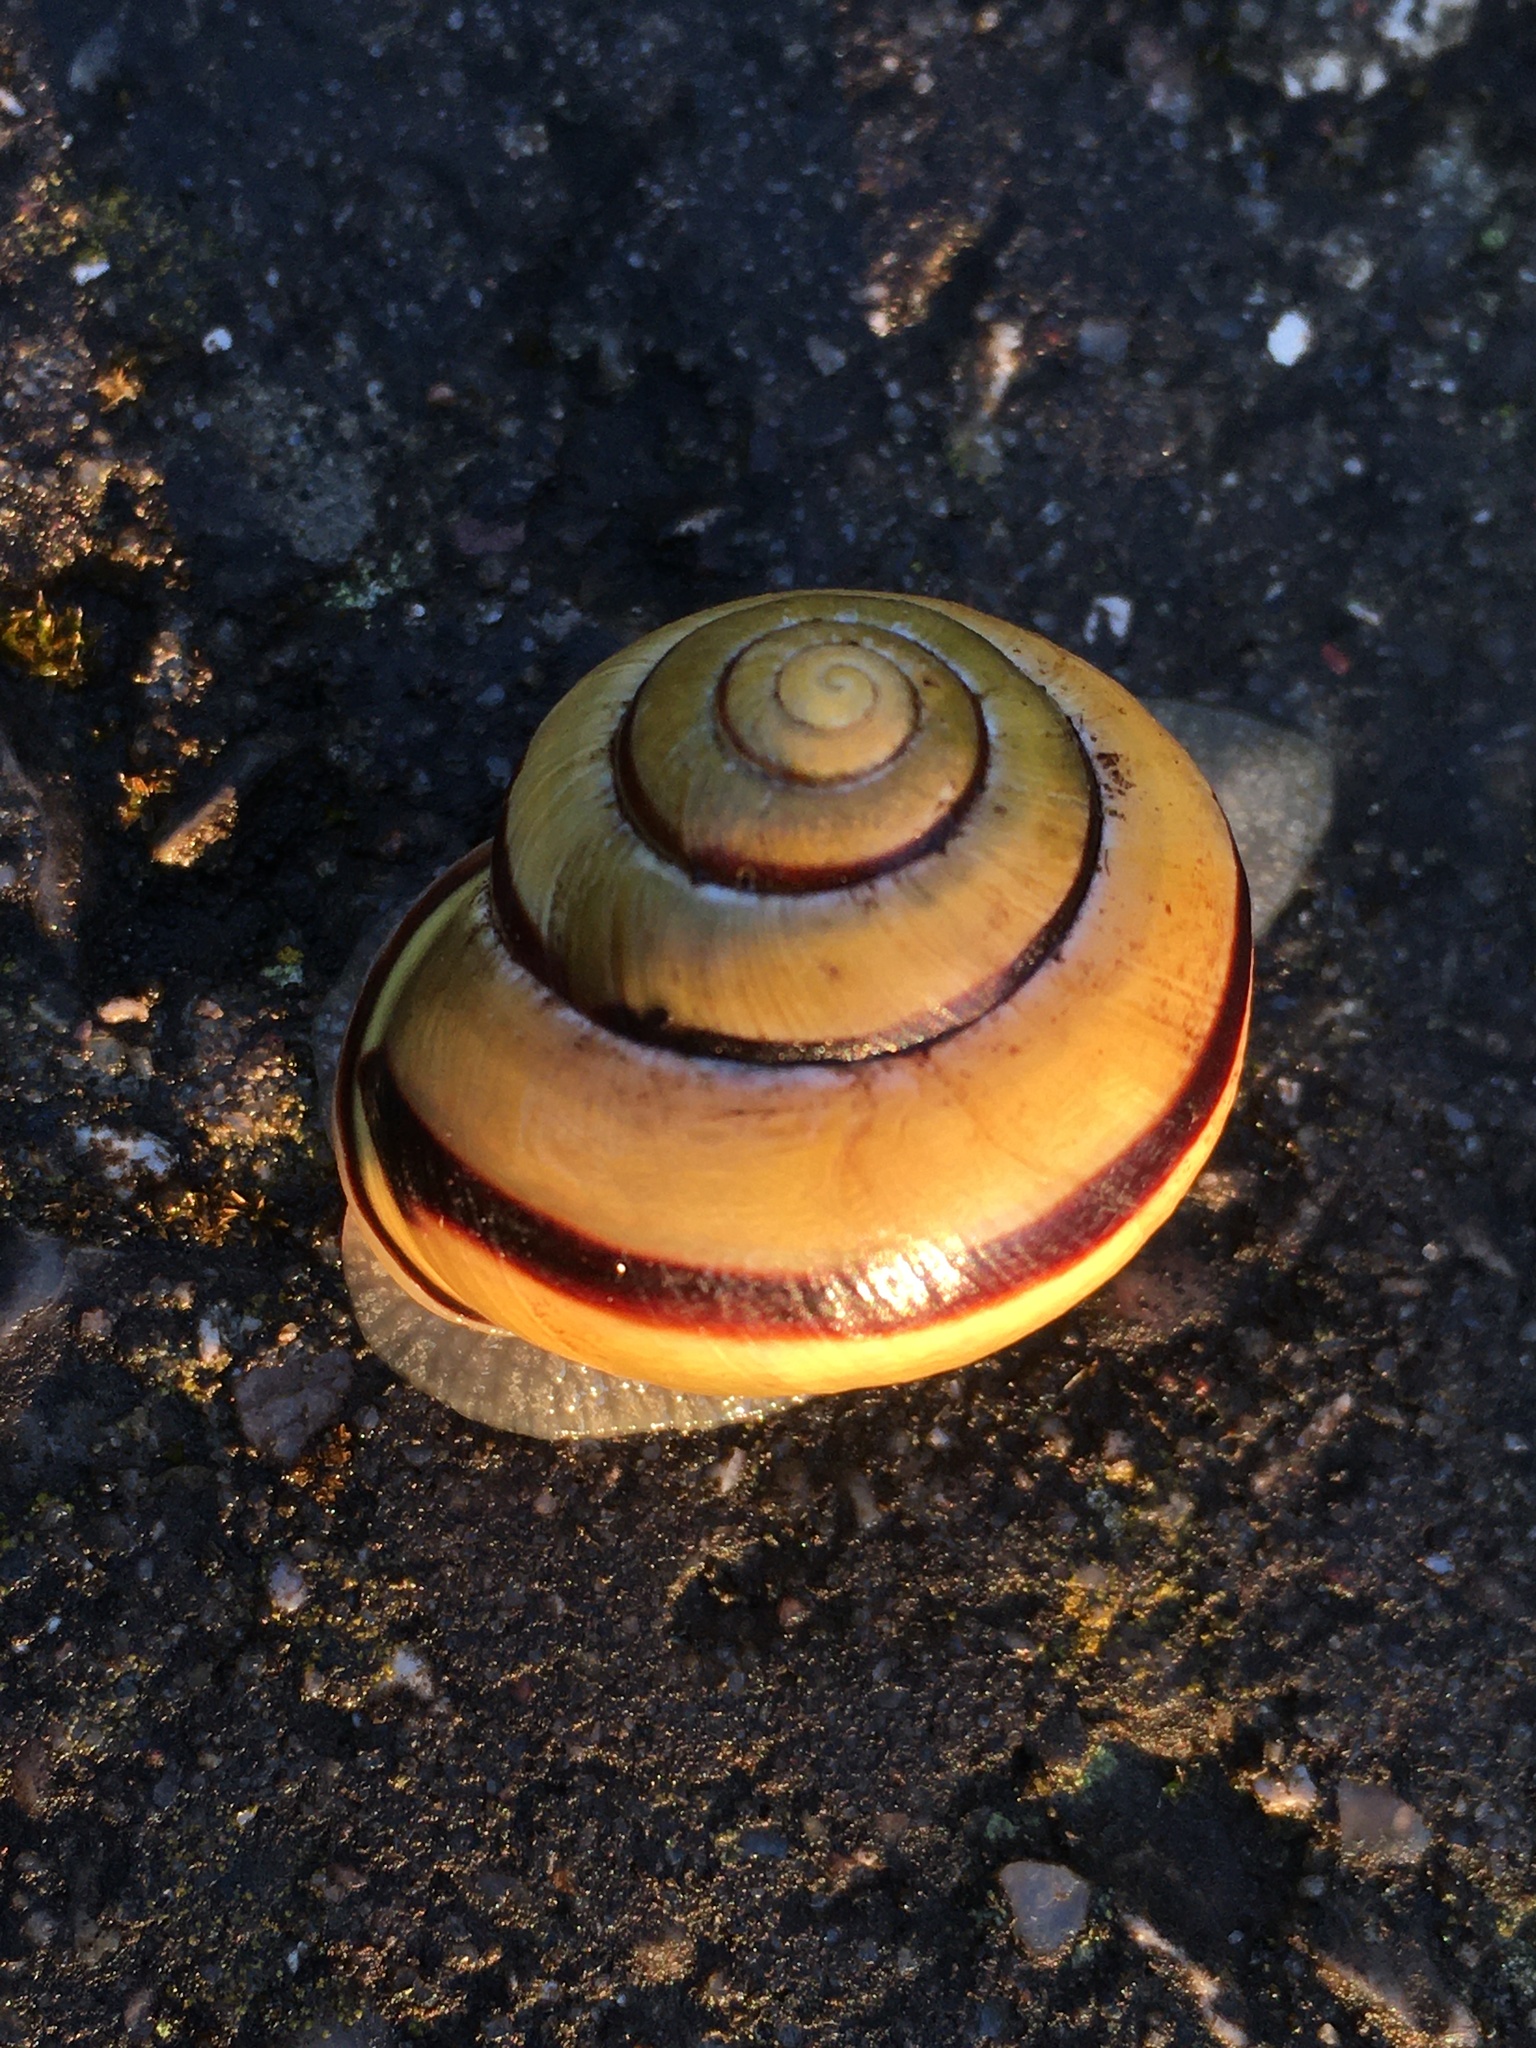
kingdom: Animalia
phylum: Mollusca
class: Gastropoda
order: Stylommatophora
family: Helicidae
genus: Cepaea
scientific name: Cepaea nemoralis
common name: Grovesnail
